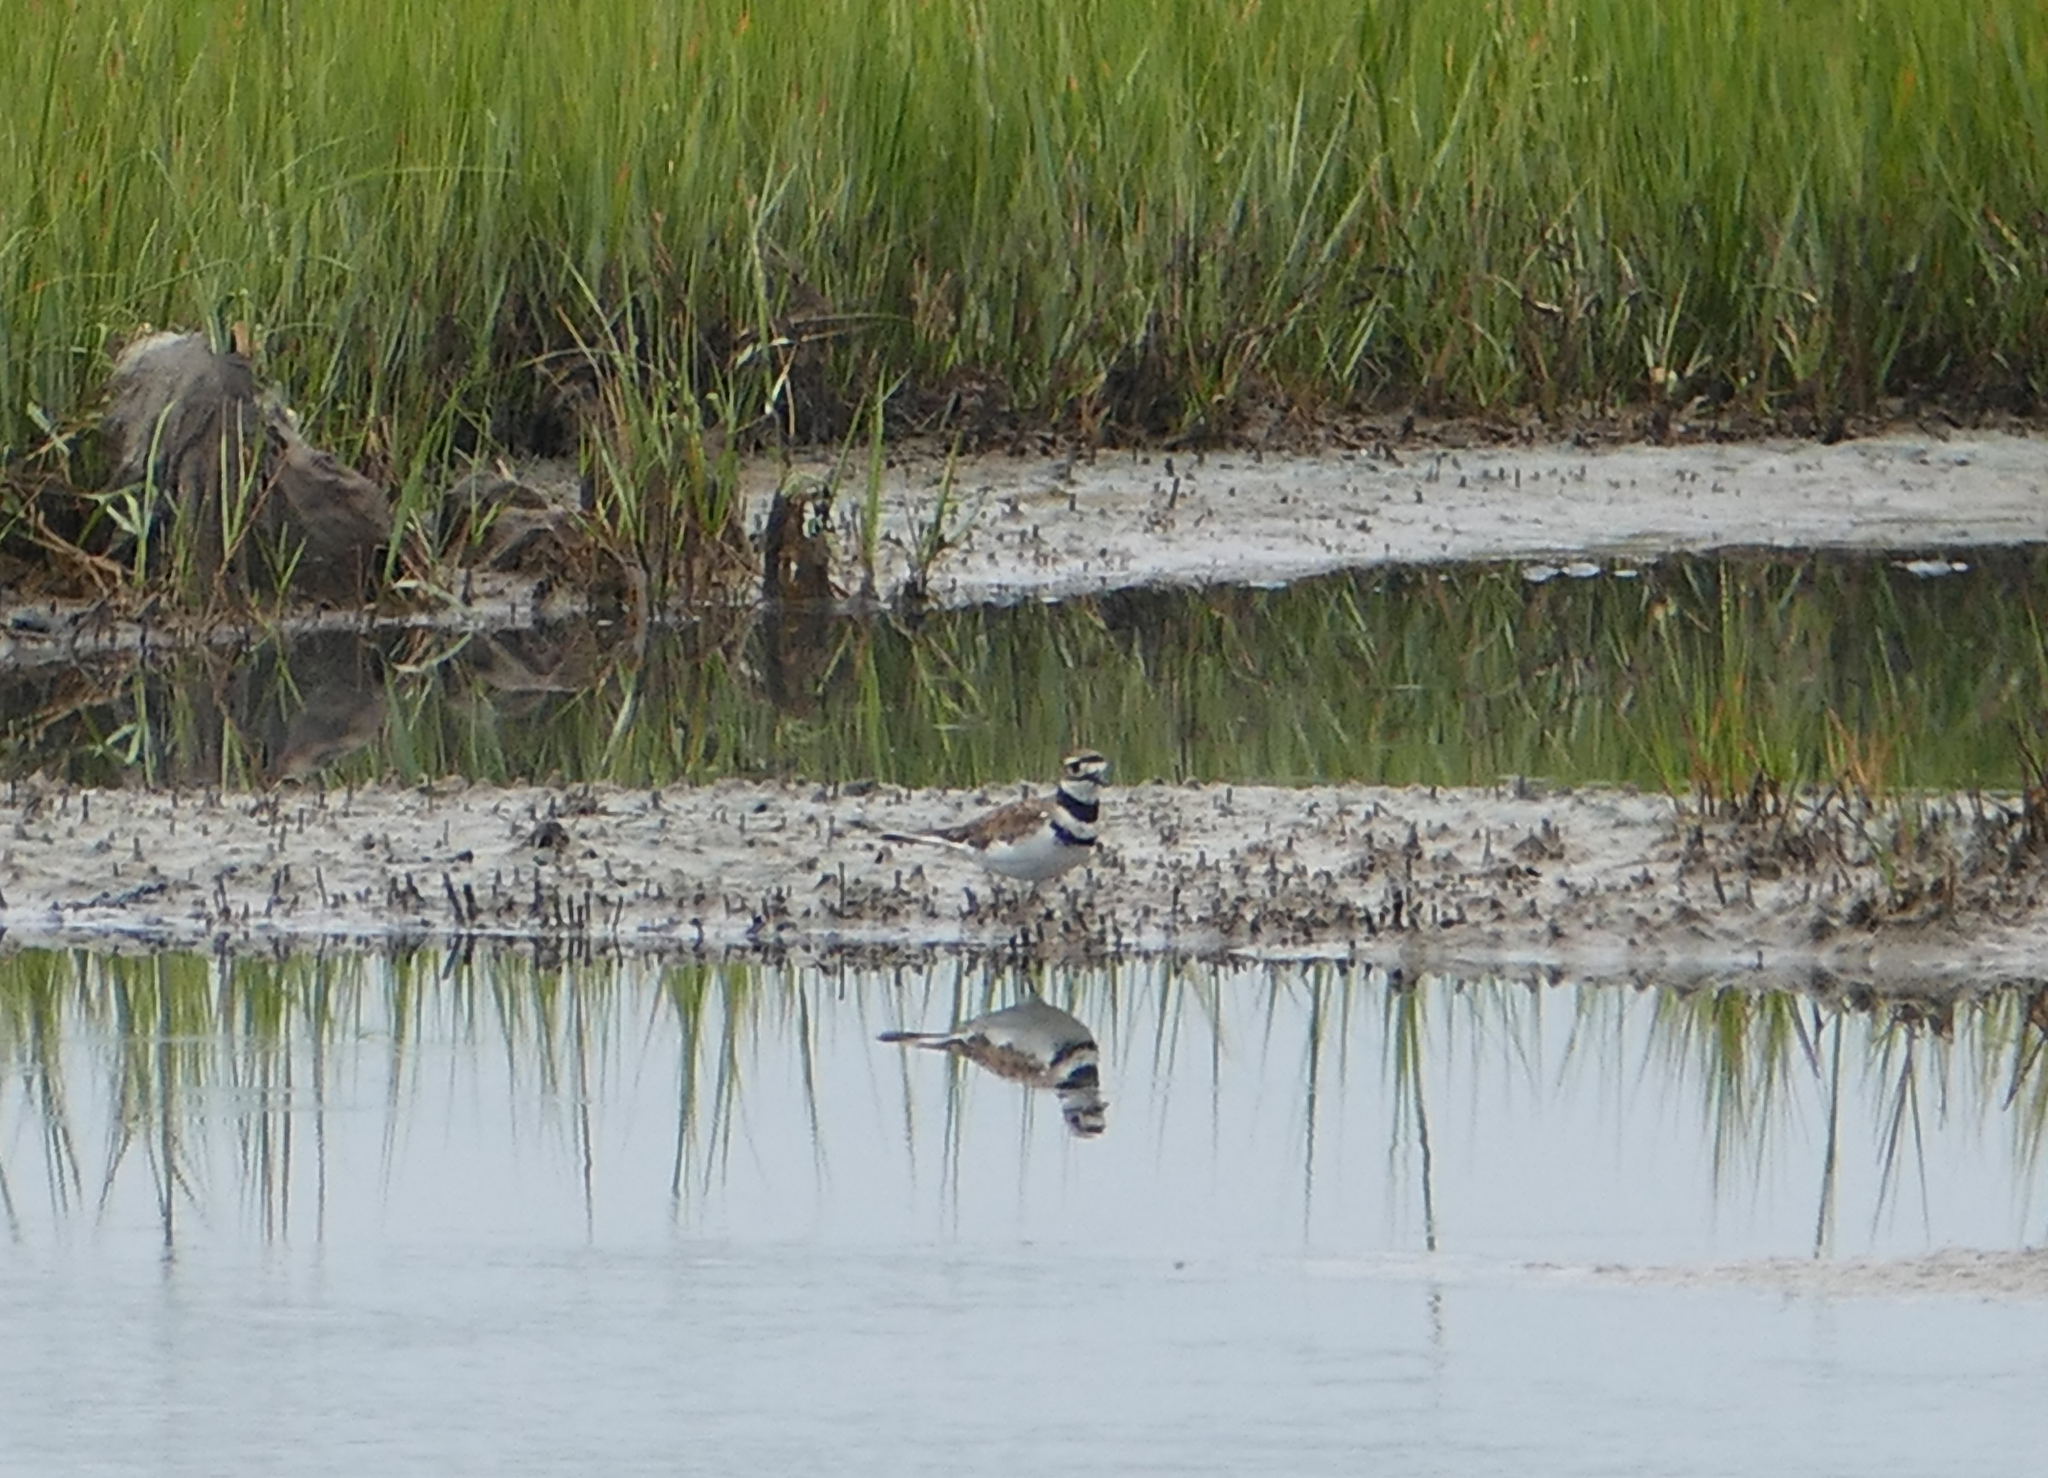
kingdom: Animalia
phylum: Chordata
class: Aves
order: Charadriiformes
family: Charadriidae
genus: Charadrius
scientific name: Charadrius vociferus
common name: Killdeer
